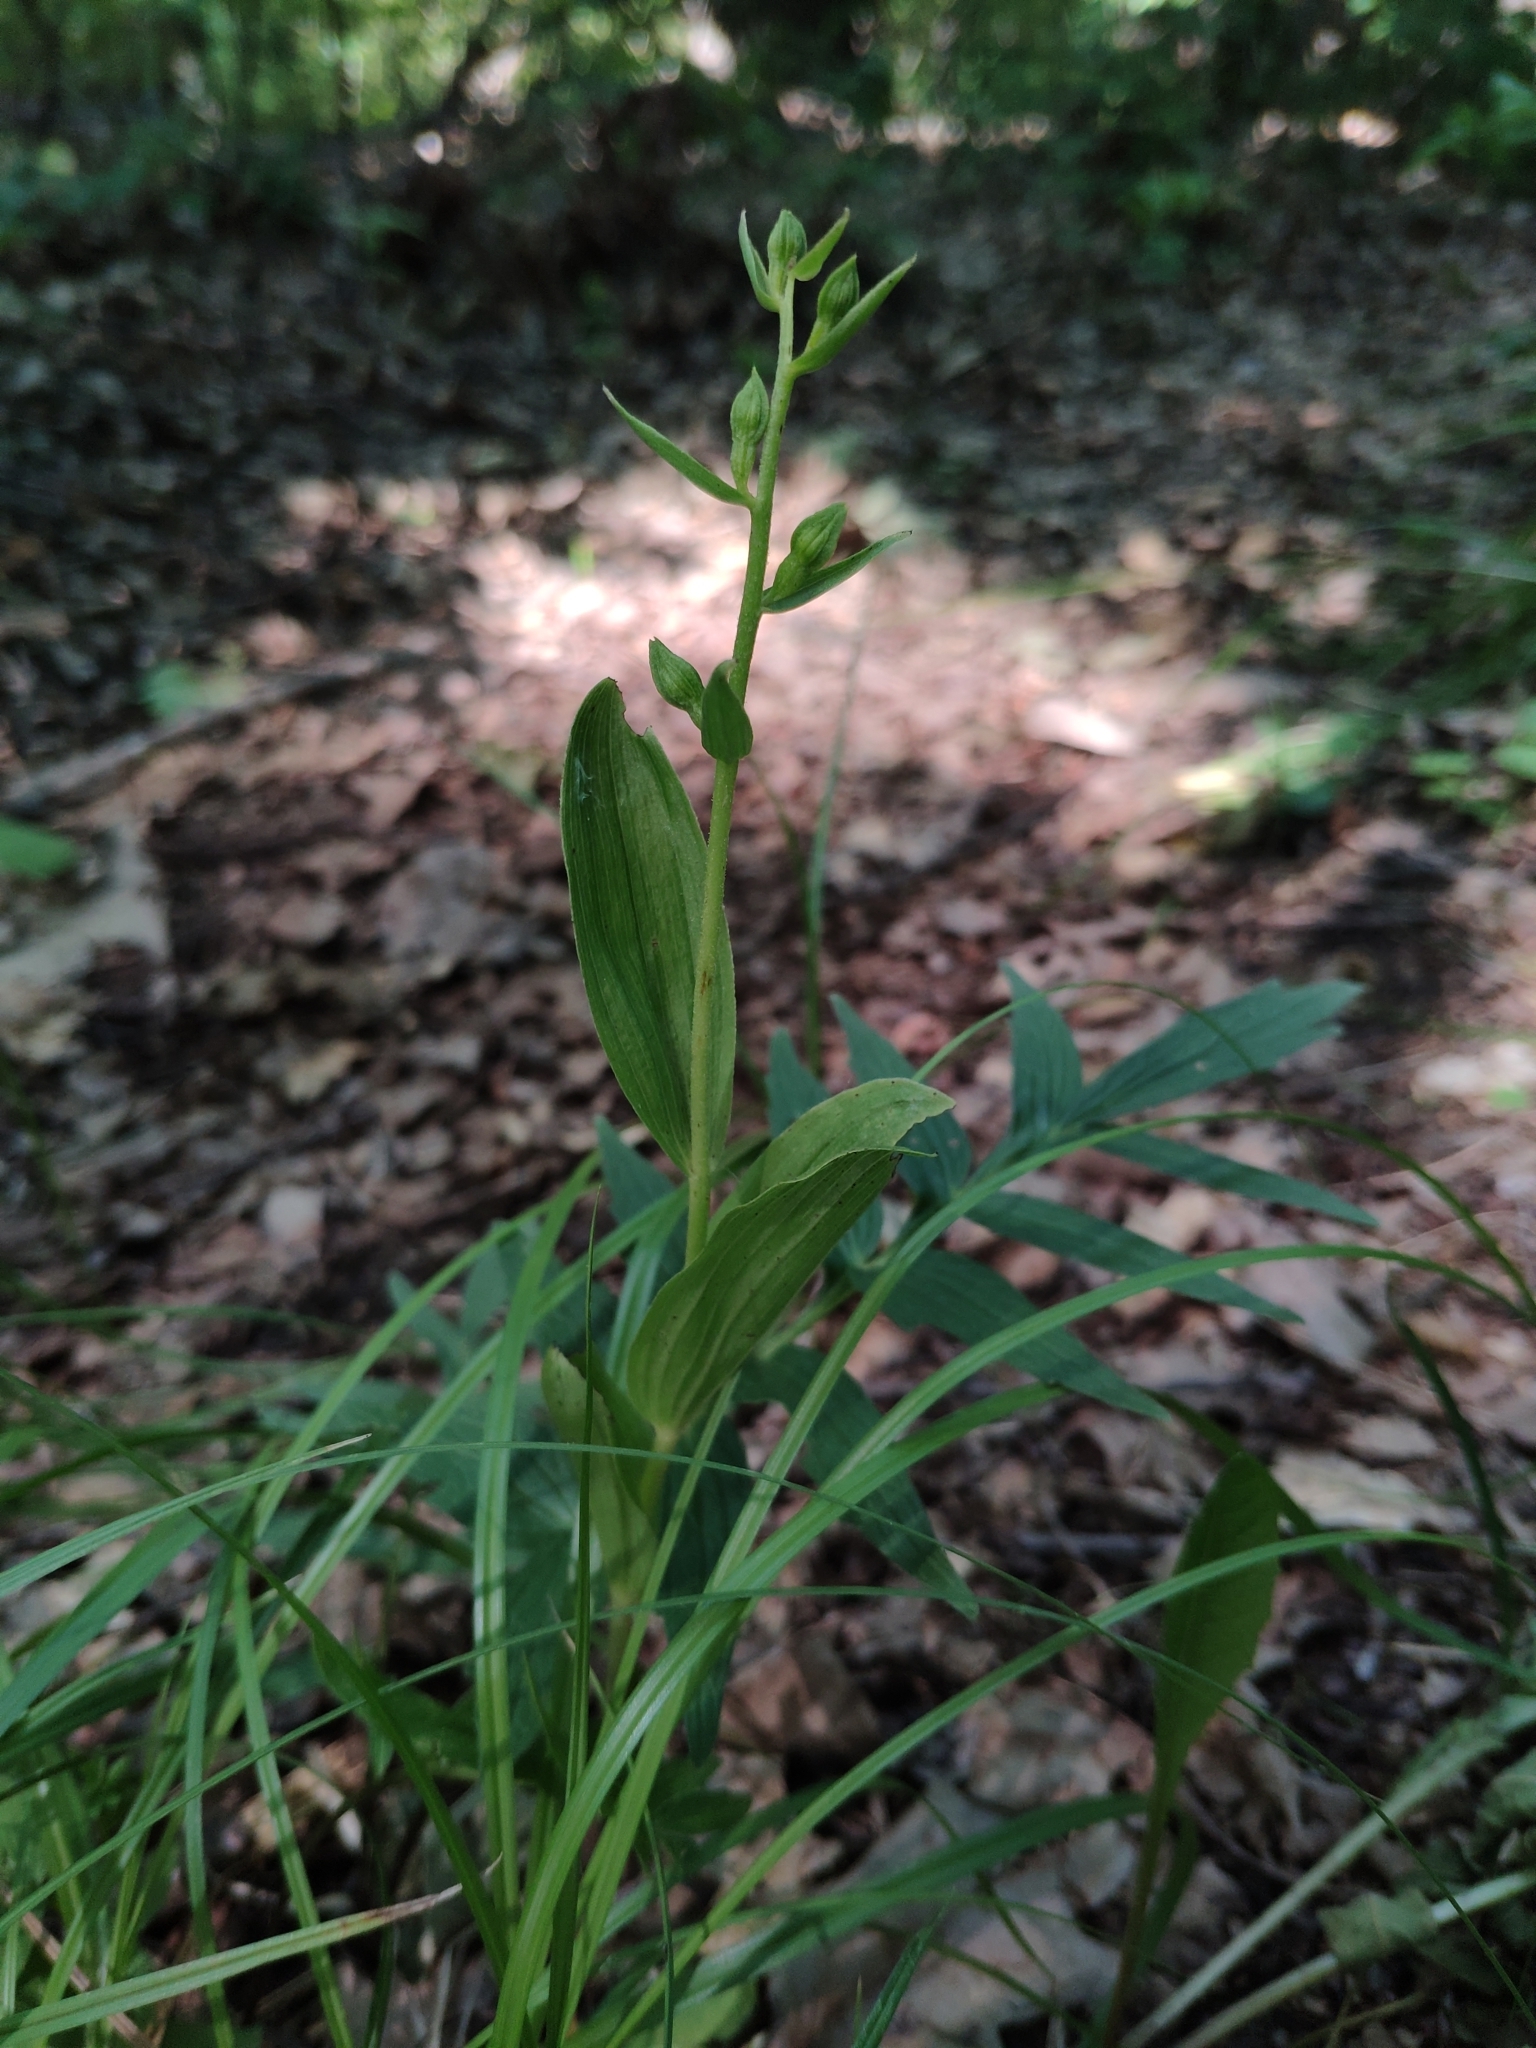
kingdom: Plantae
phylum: Tracheophyta
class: Liliopsida
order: Asparagales
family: Orchidaceae
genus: Epipactis
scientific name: Epipactis helleborine
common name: Broad-leaved helleborine
